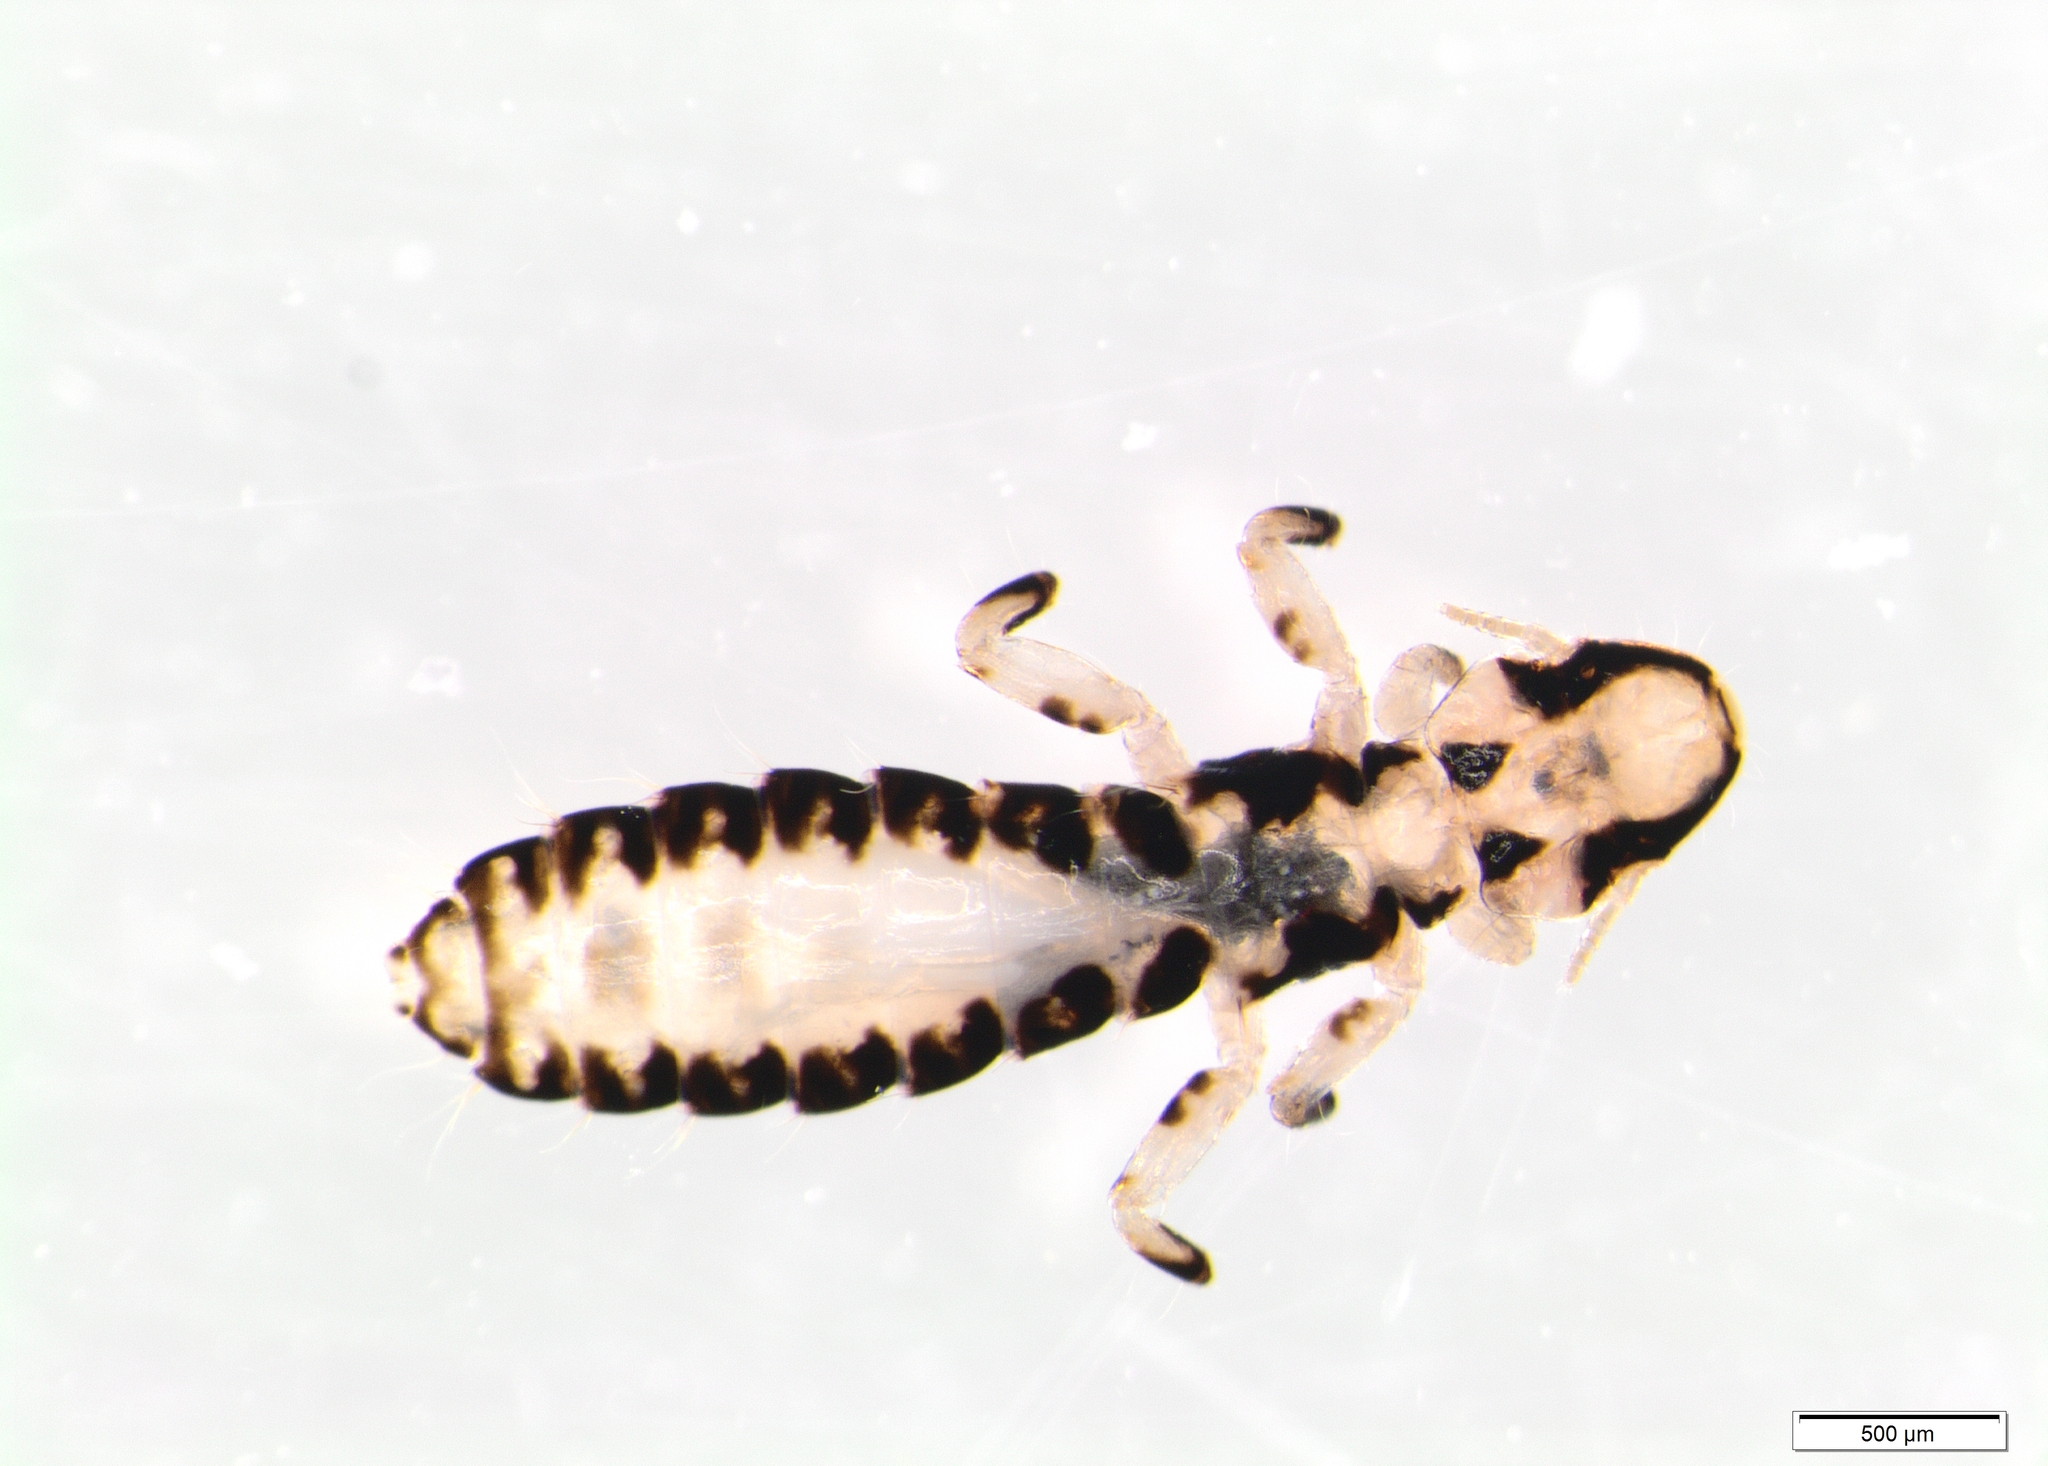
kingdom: Animalia
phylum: Arthropoda
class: Insecta
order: Psocodea
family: Philopteridae
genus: Paraclisis
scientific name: Paraclisis miriceps
